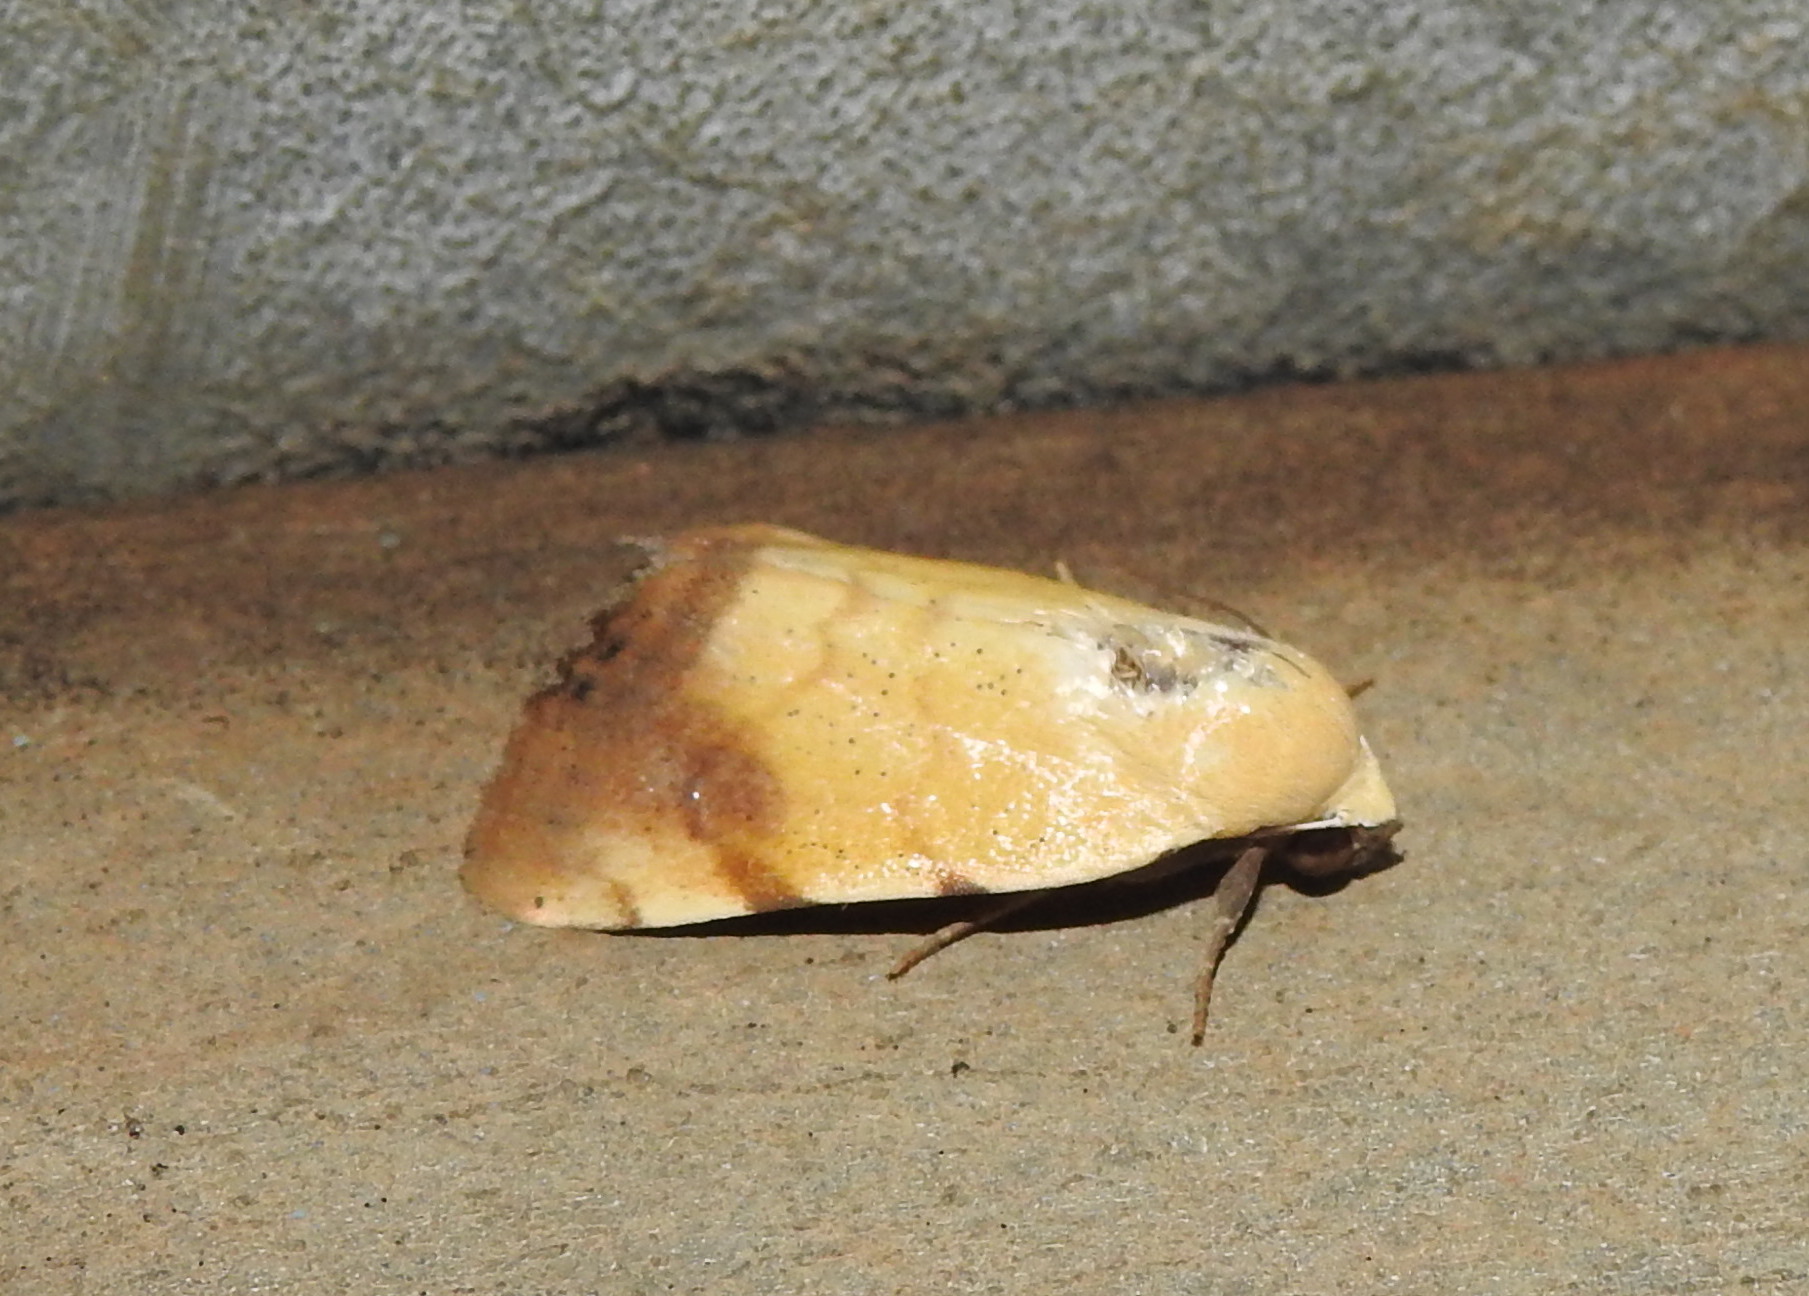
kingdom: Animalia
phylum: Arthropoda
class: Insecta
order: Lepidoptera
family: Nolidae
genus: Xanthodes
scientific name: Xanthodes albago
